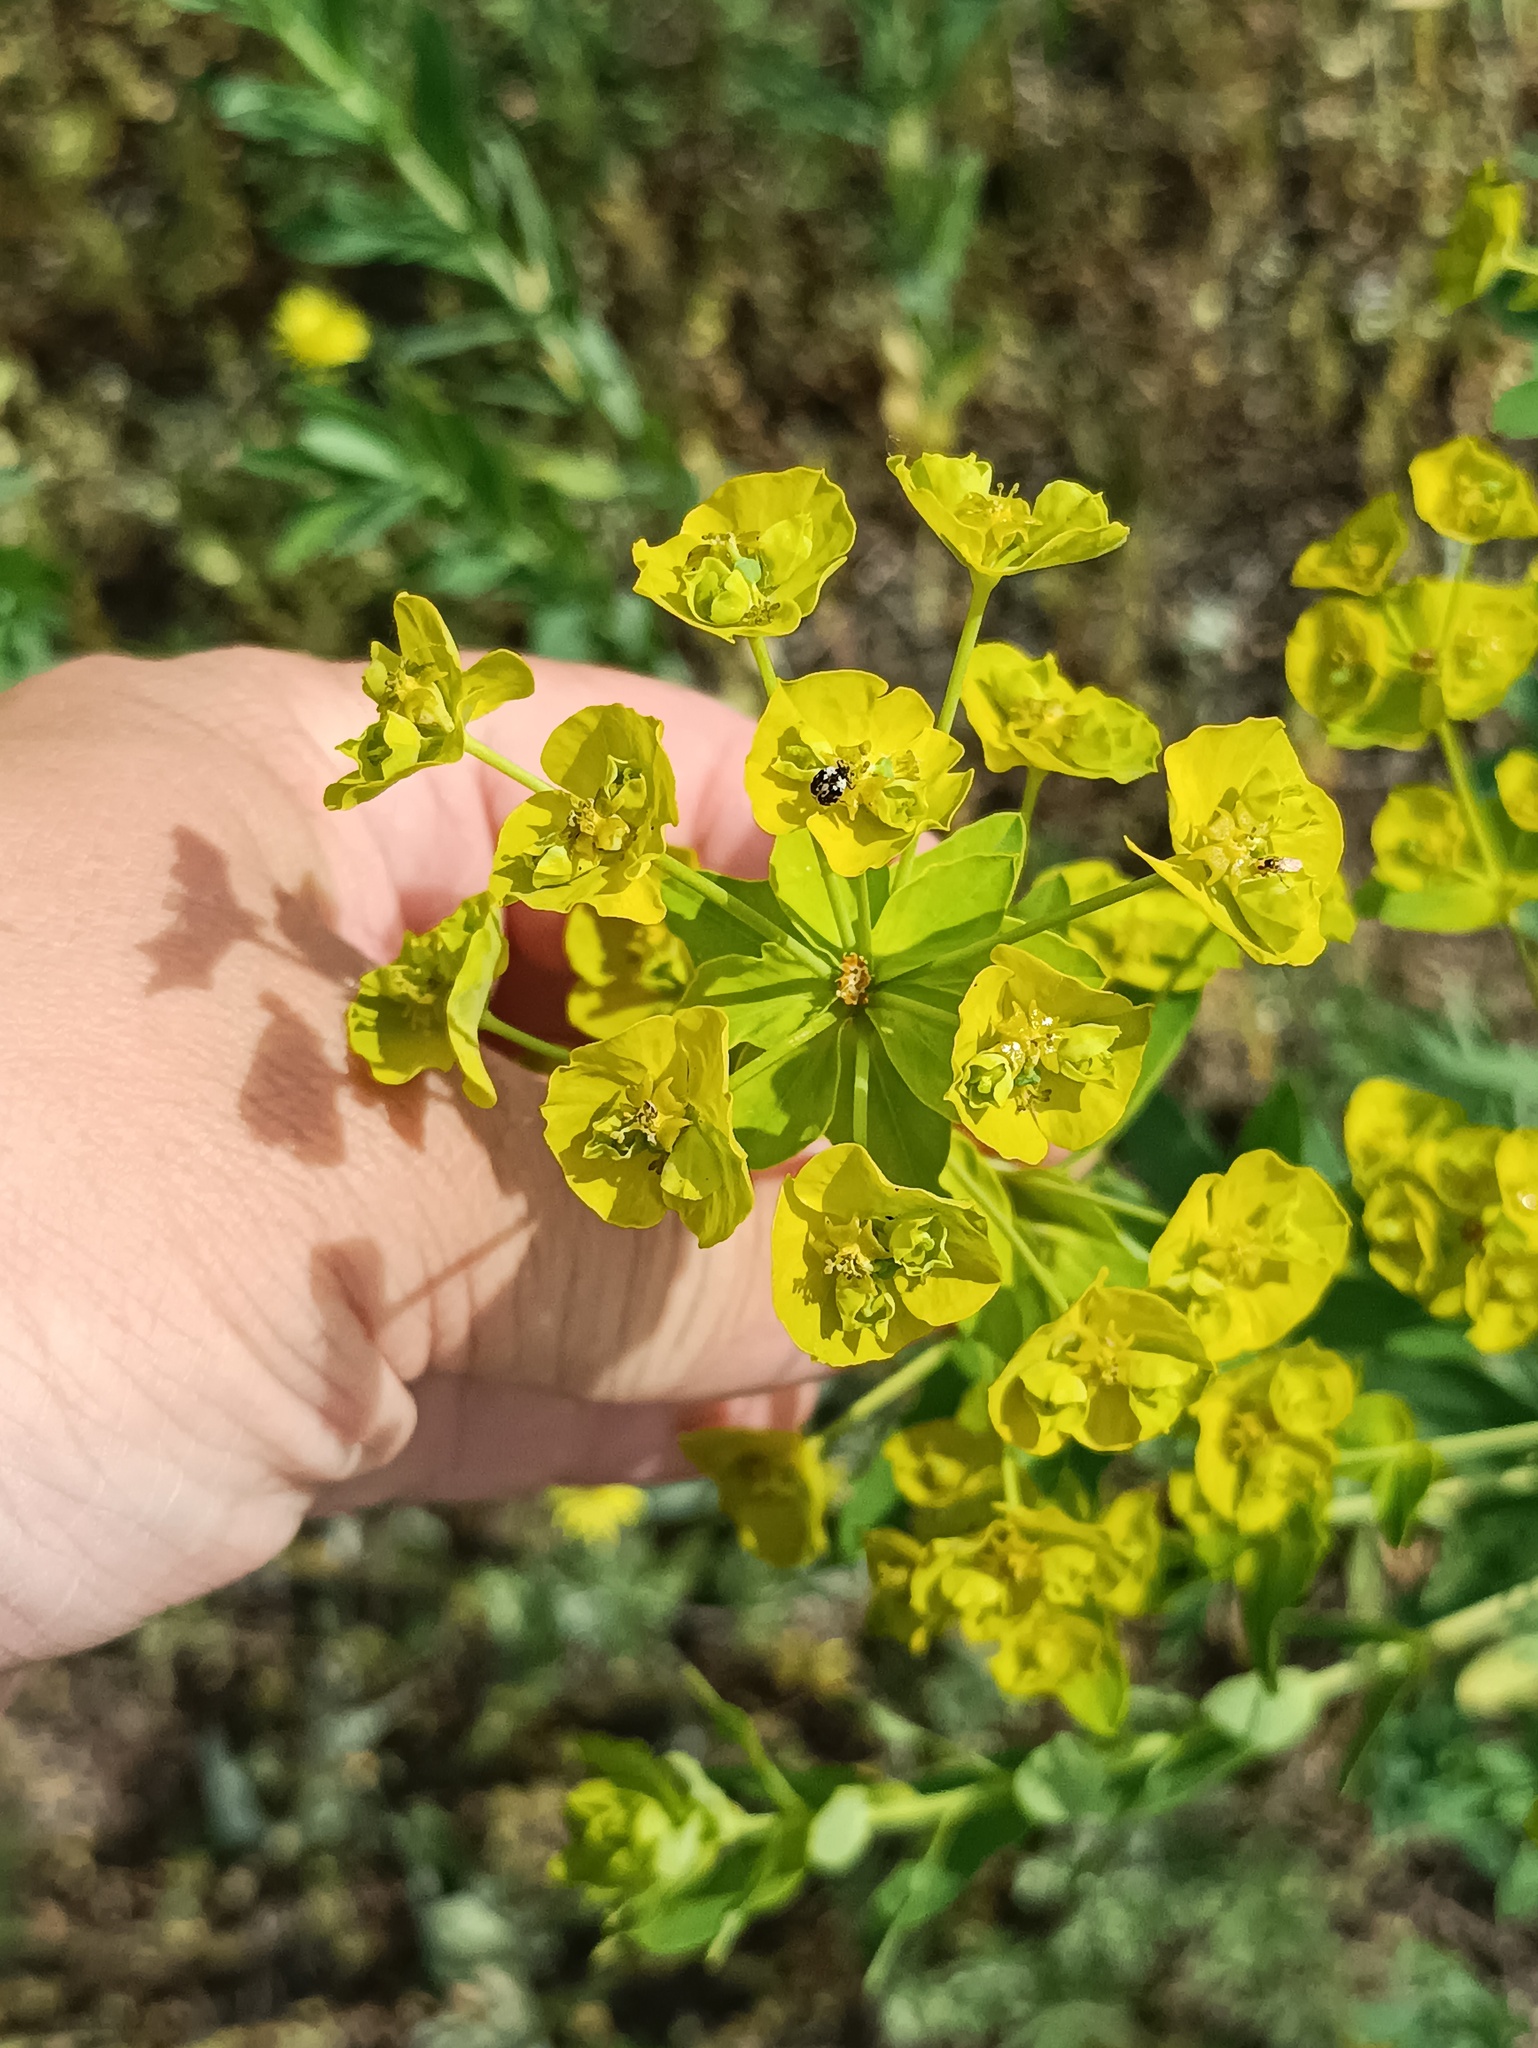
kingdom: Plantae
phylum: Tracheophyta
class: Magnoliopsida
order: Malpighiales
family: Euphorbiaceae
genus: Euphorbia
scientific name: Euphorbia virgata
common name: Leafy spurge
